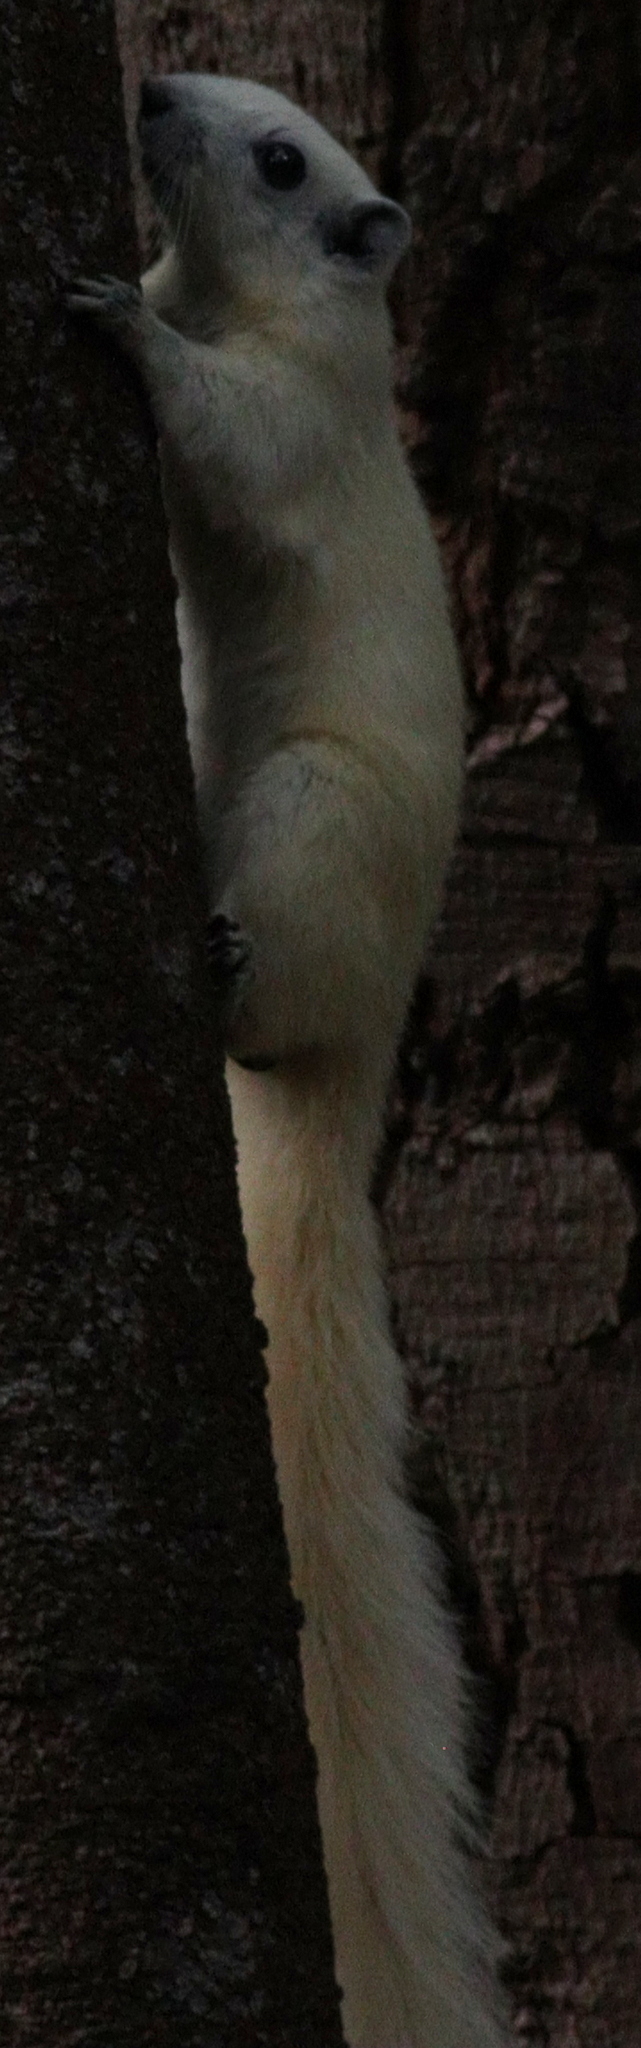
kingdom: Animalia
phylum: Chordata
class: Mammalia
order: Rodentia
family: Sciuridae
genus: Callosciurus
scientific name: Callosciurus finlaysonii
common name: Finlayson's squirrel
